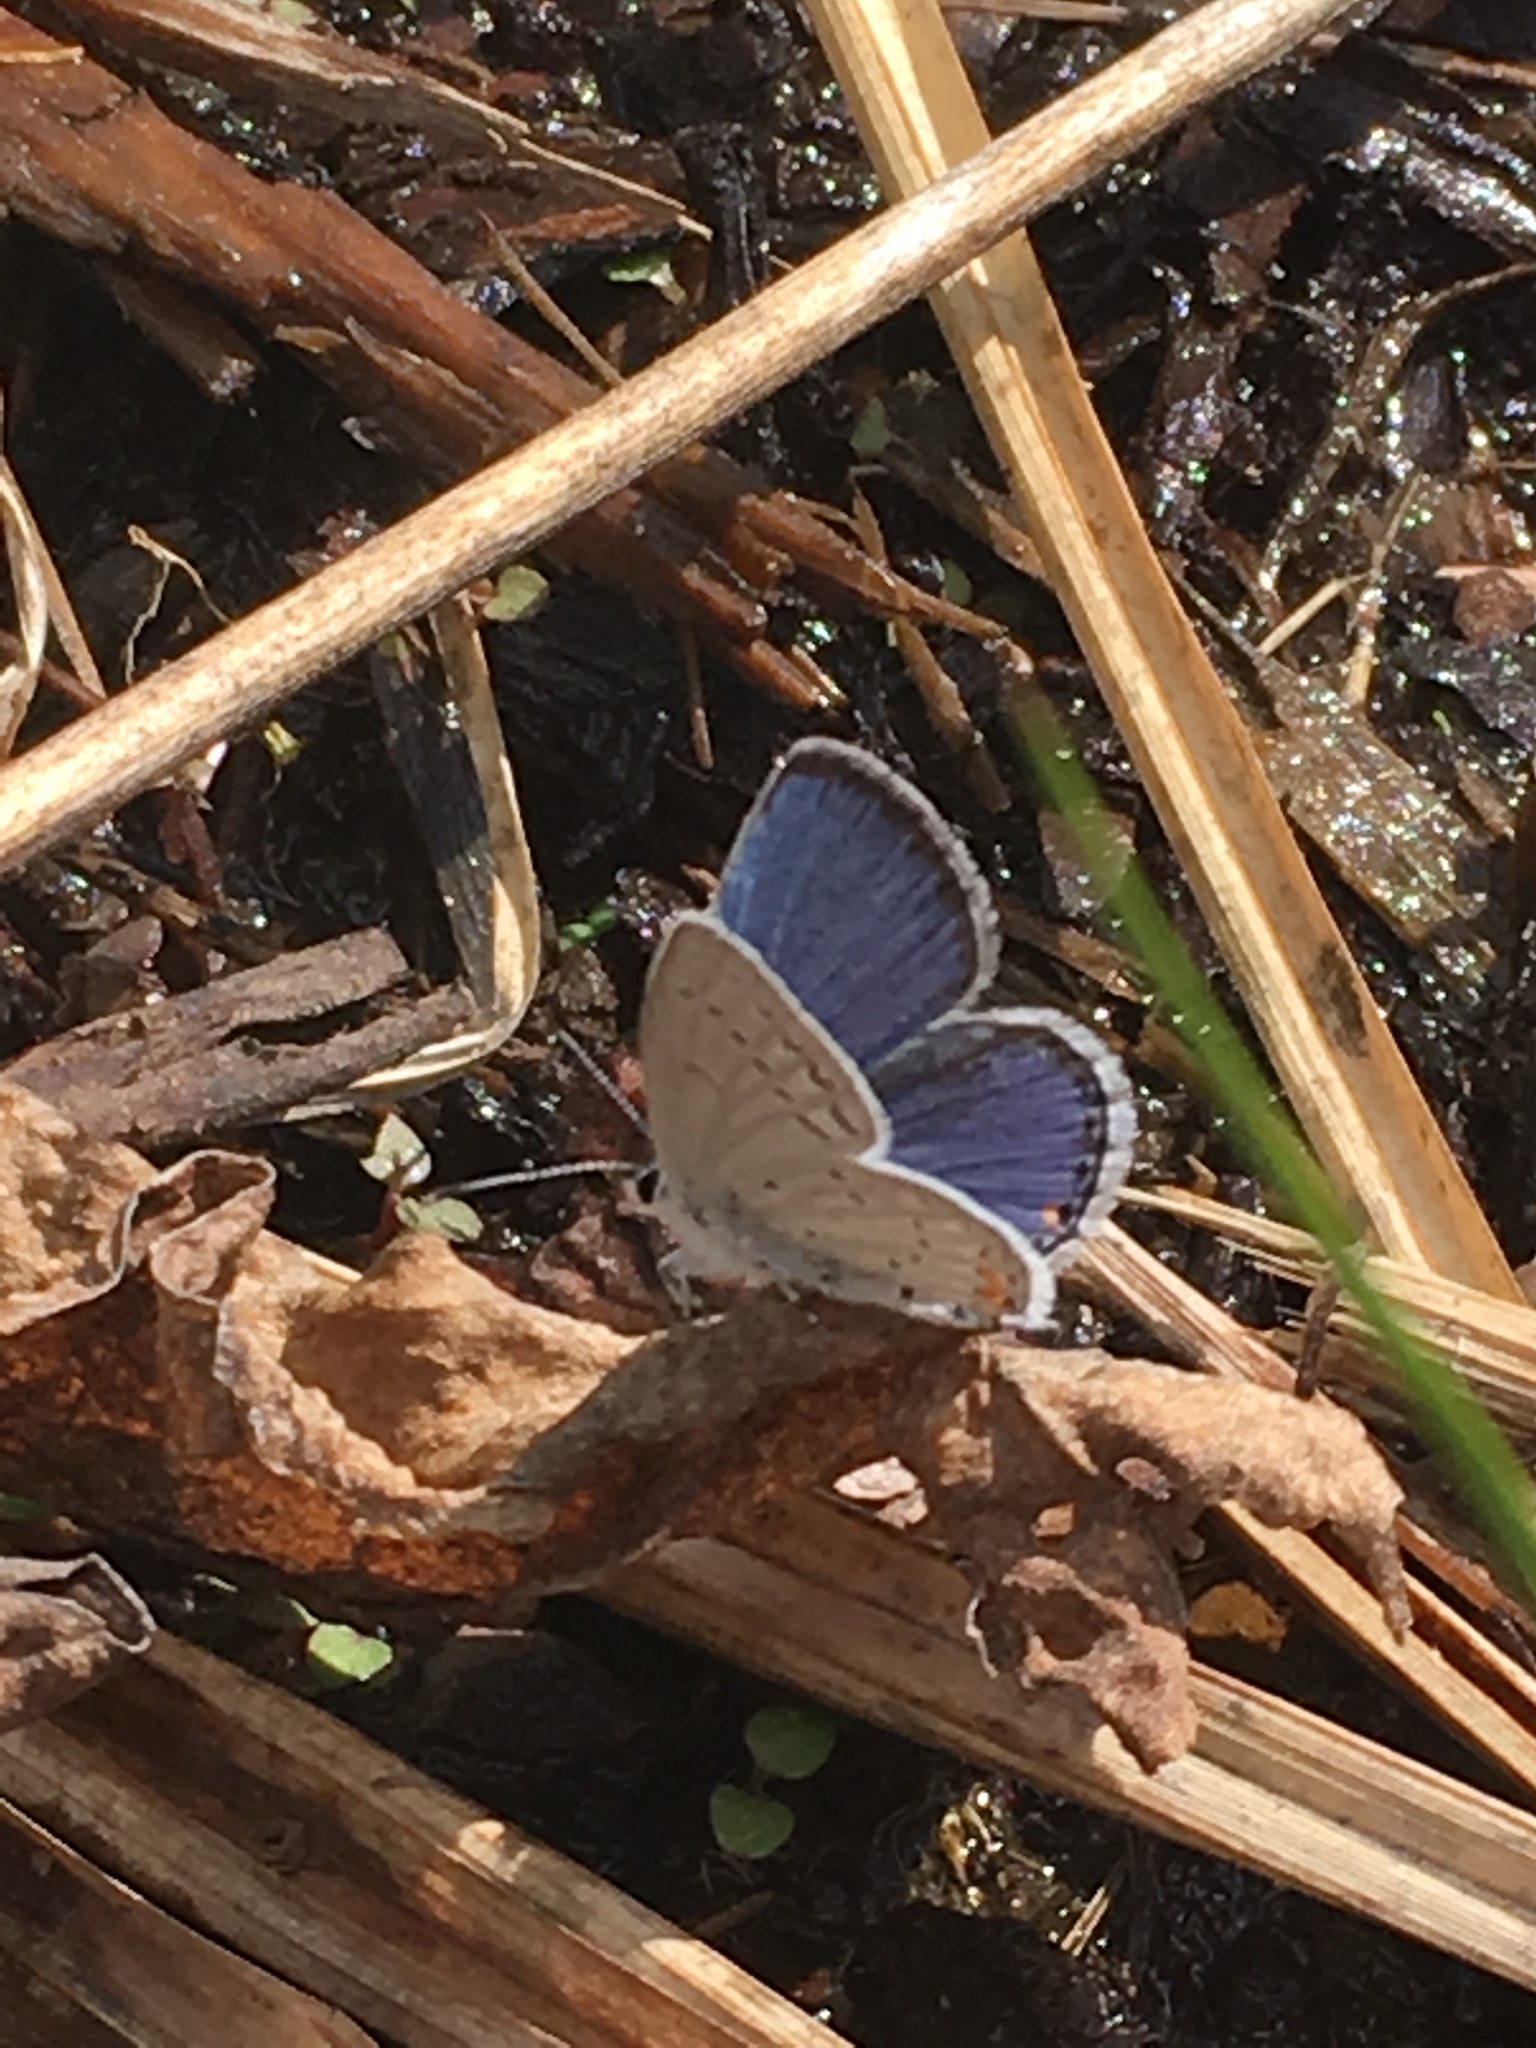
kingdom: Animalia
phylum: Arthropoda
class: Insecta
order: Lepidoptera
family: Lycaenidae
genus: Elkalyce
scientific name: Elkalyce comyntas
